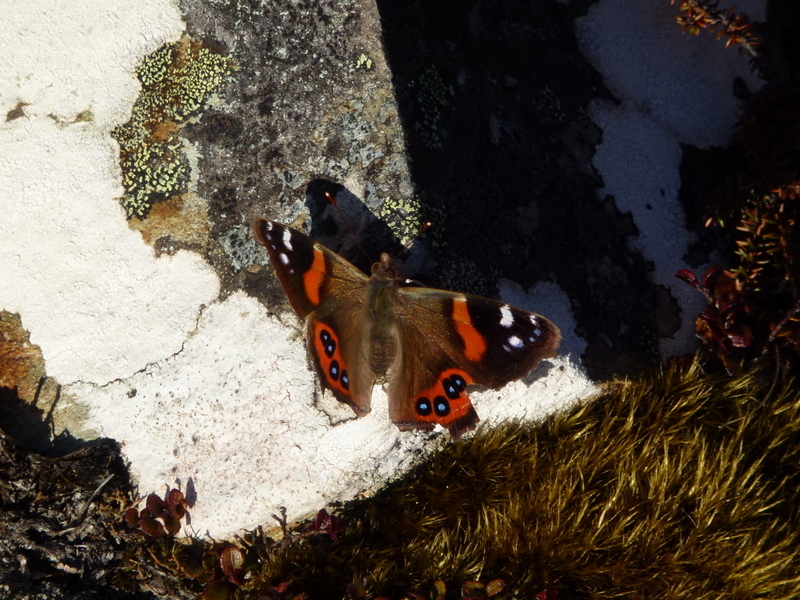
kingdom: Animalia
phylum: Arthropoda
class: Insecta
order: Lepidoptera
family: Nymphalidae
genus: Vanessa
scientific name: Vanessa gonerilla
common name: New zealand red admiral
